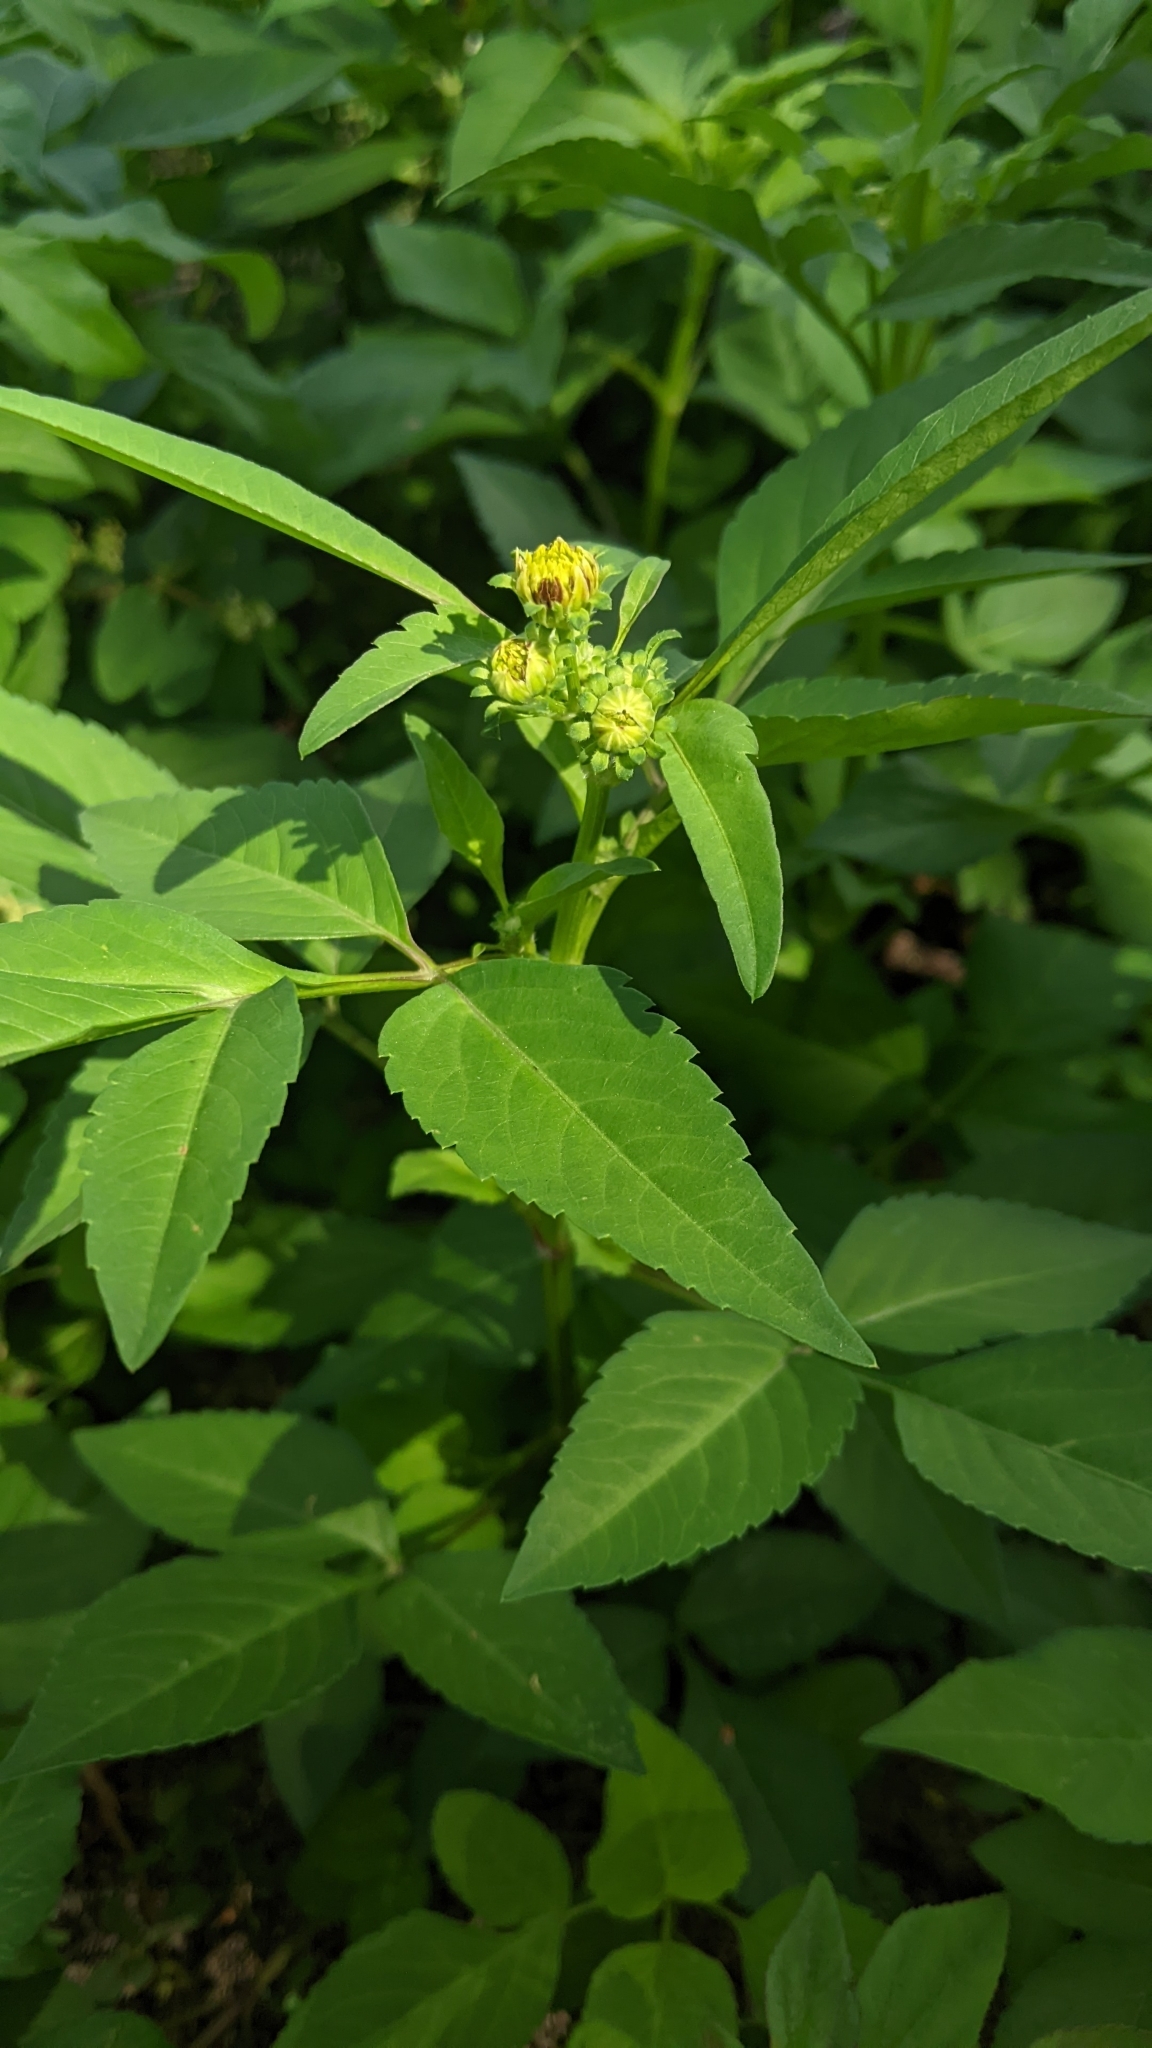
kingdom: Plantae
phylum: Tracheophyta
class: Magnoliopsida
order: Asterales
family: Asteraceae
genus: Bidens
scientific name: Bidens alba
